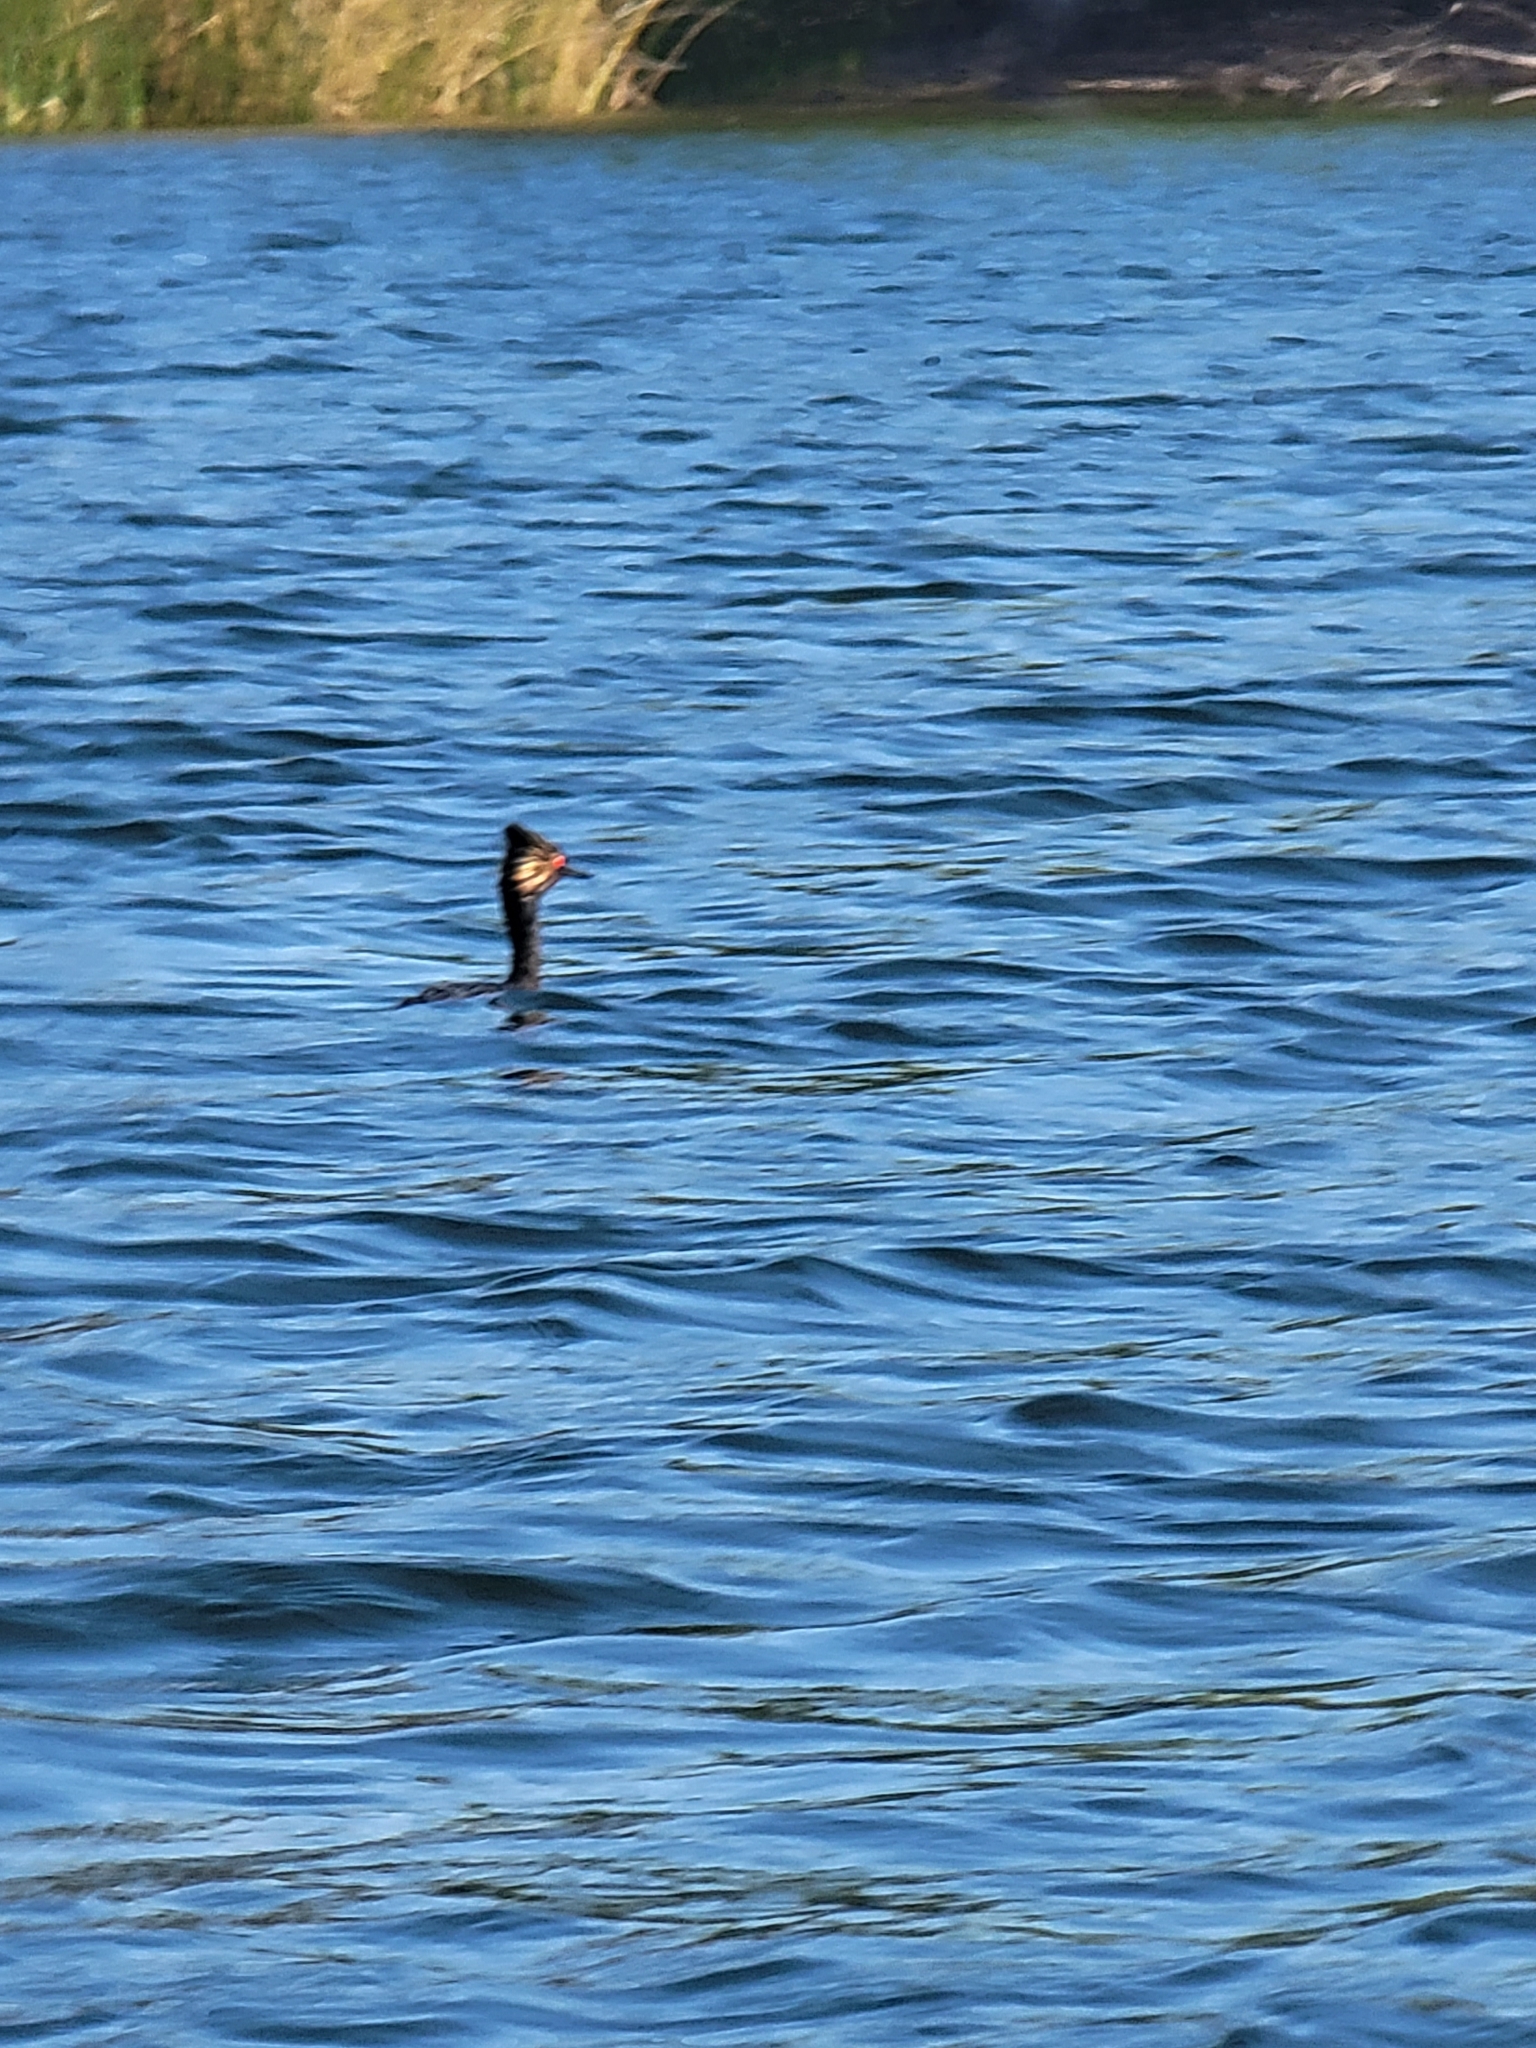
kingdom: Animalia
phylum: Chordata
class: Aves
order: Podicipediformes
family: Podicipedidae
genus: Podiceps
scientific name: Podiceps nigricollis
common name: Black-necked grebe
